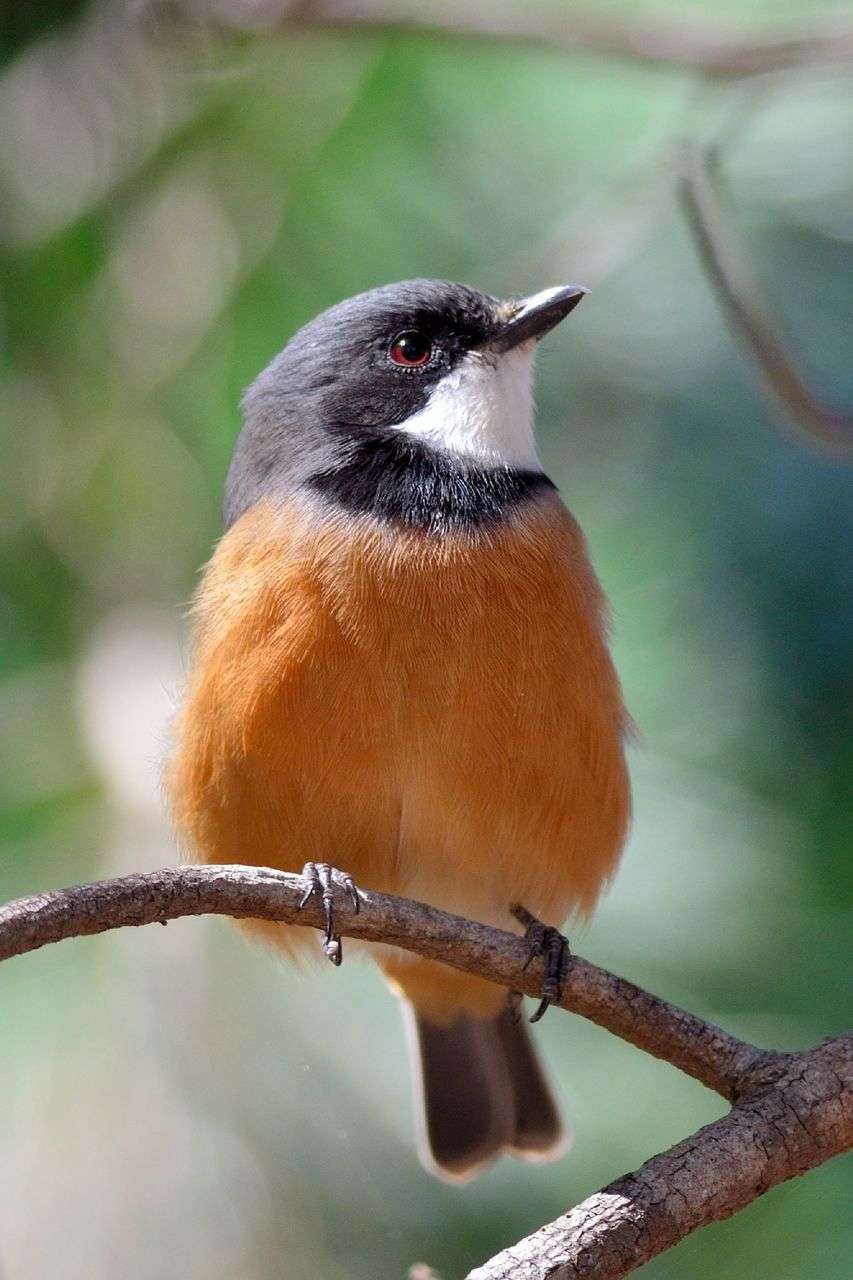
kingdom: Animalia
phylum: Chordata
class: Aves
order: Passeriformes
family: Pachycephalidae
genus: Pachycephala
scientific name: Pachycephala rufiventris
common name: Rufous whistler
